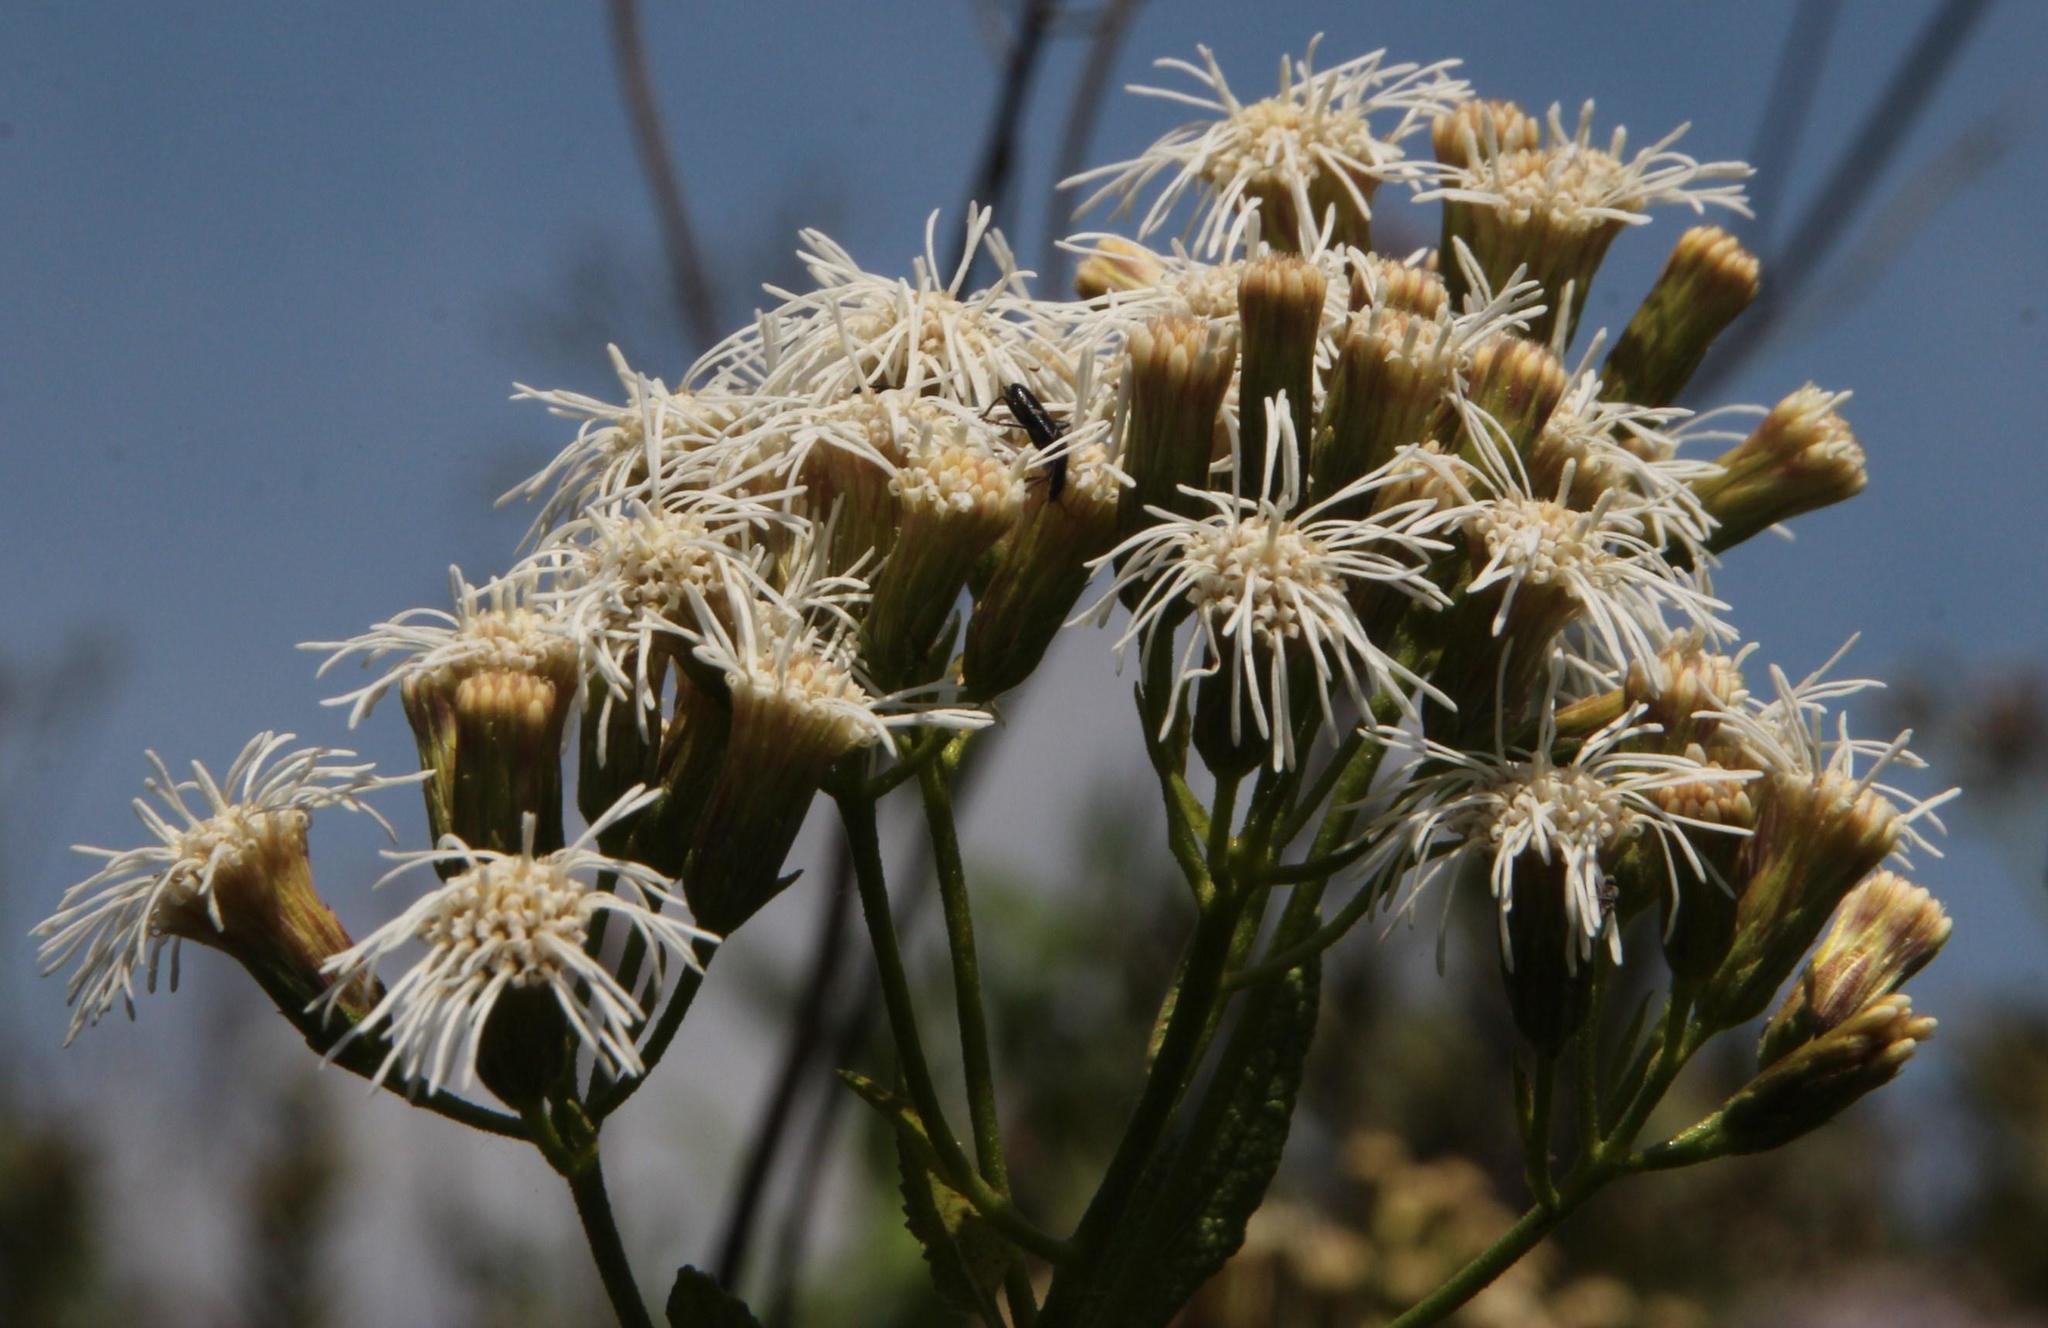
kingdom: Plantae
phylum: Tracheophyta
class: Magnoliopsida
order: Asterales
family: Asteraceae
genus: Aristeguietia
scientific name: Aristeguietia salvia
